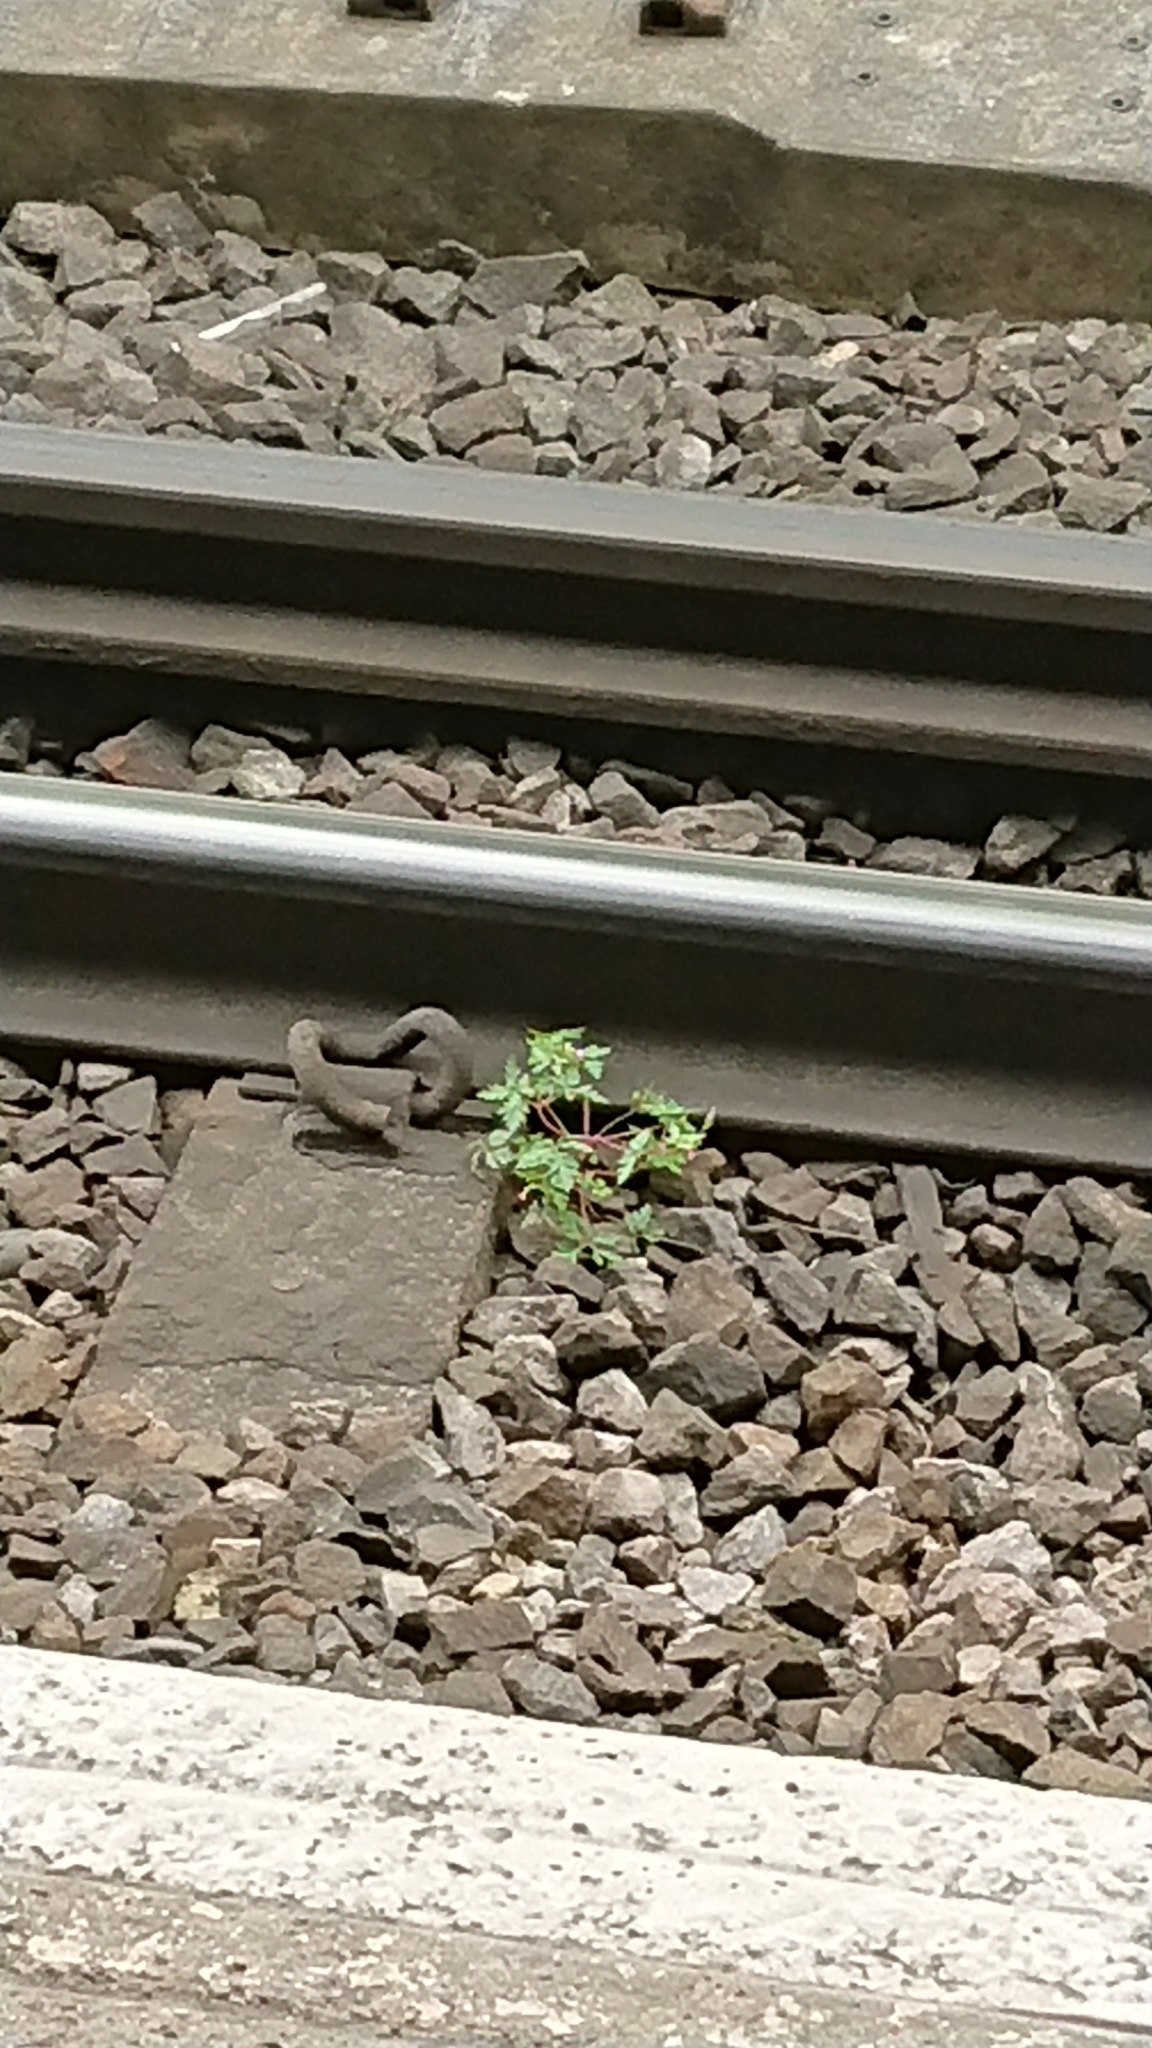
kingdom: Plantae
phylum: Tracheophyta
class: Magnoliopsida
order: Geraniales
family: Geraniaceae
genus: Geranium
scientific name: Geranium robertianum
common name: Herb-robert
